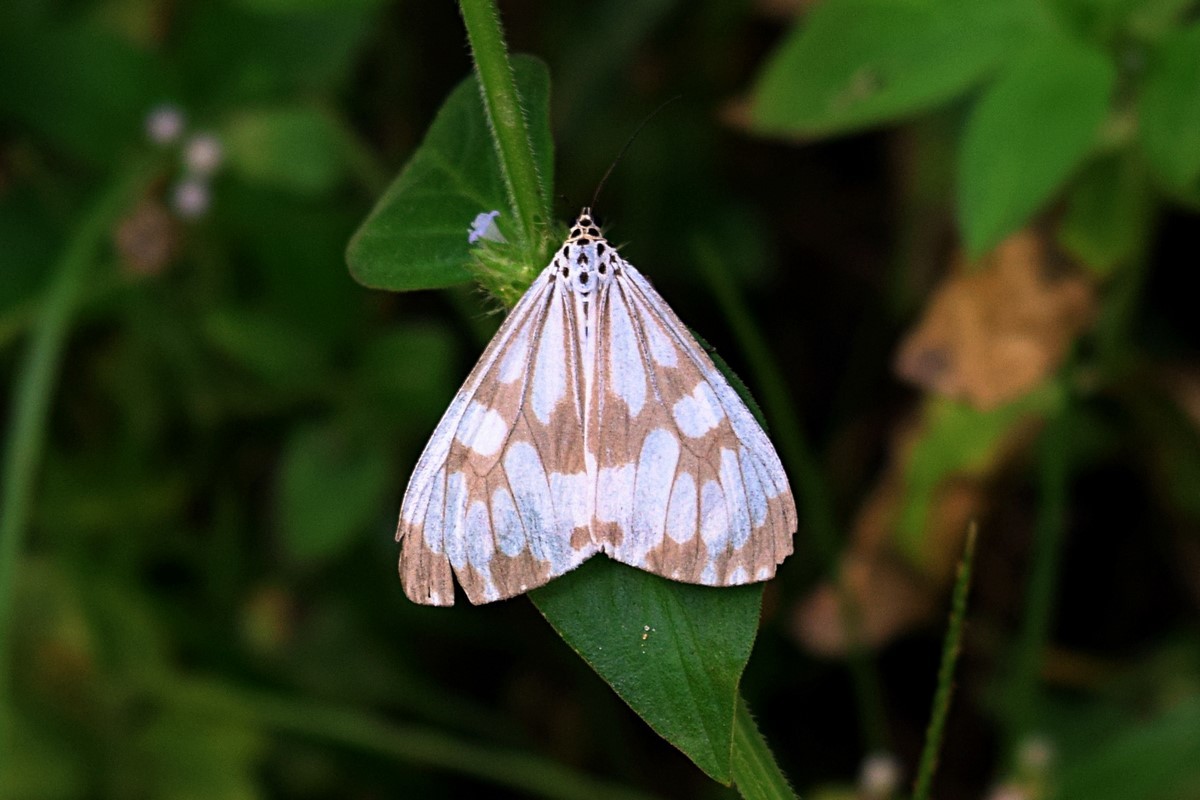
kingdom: Animalia
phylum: Arthropoda
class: Insecta
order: Lepidoptera
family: Erebidae
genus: Nyctemera
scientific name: Nyctemera adversata
